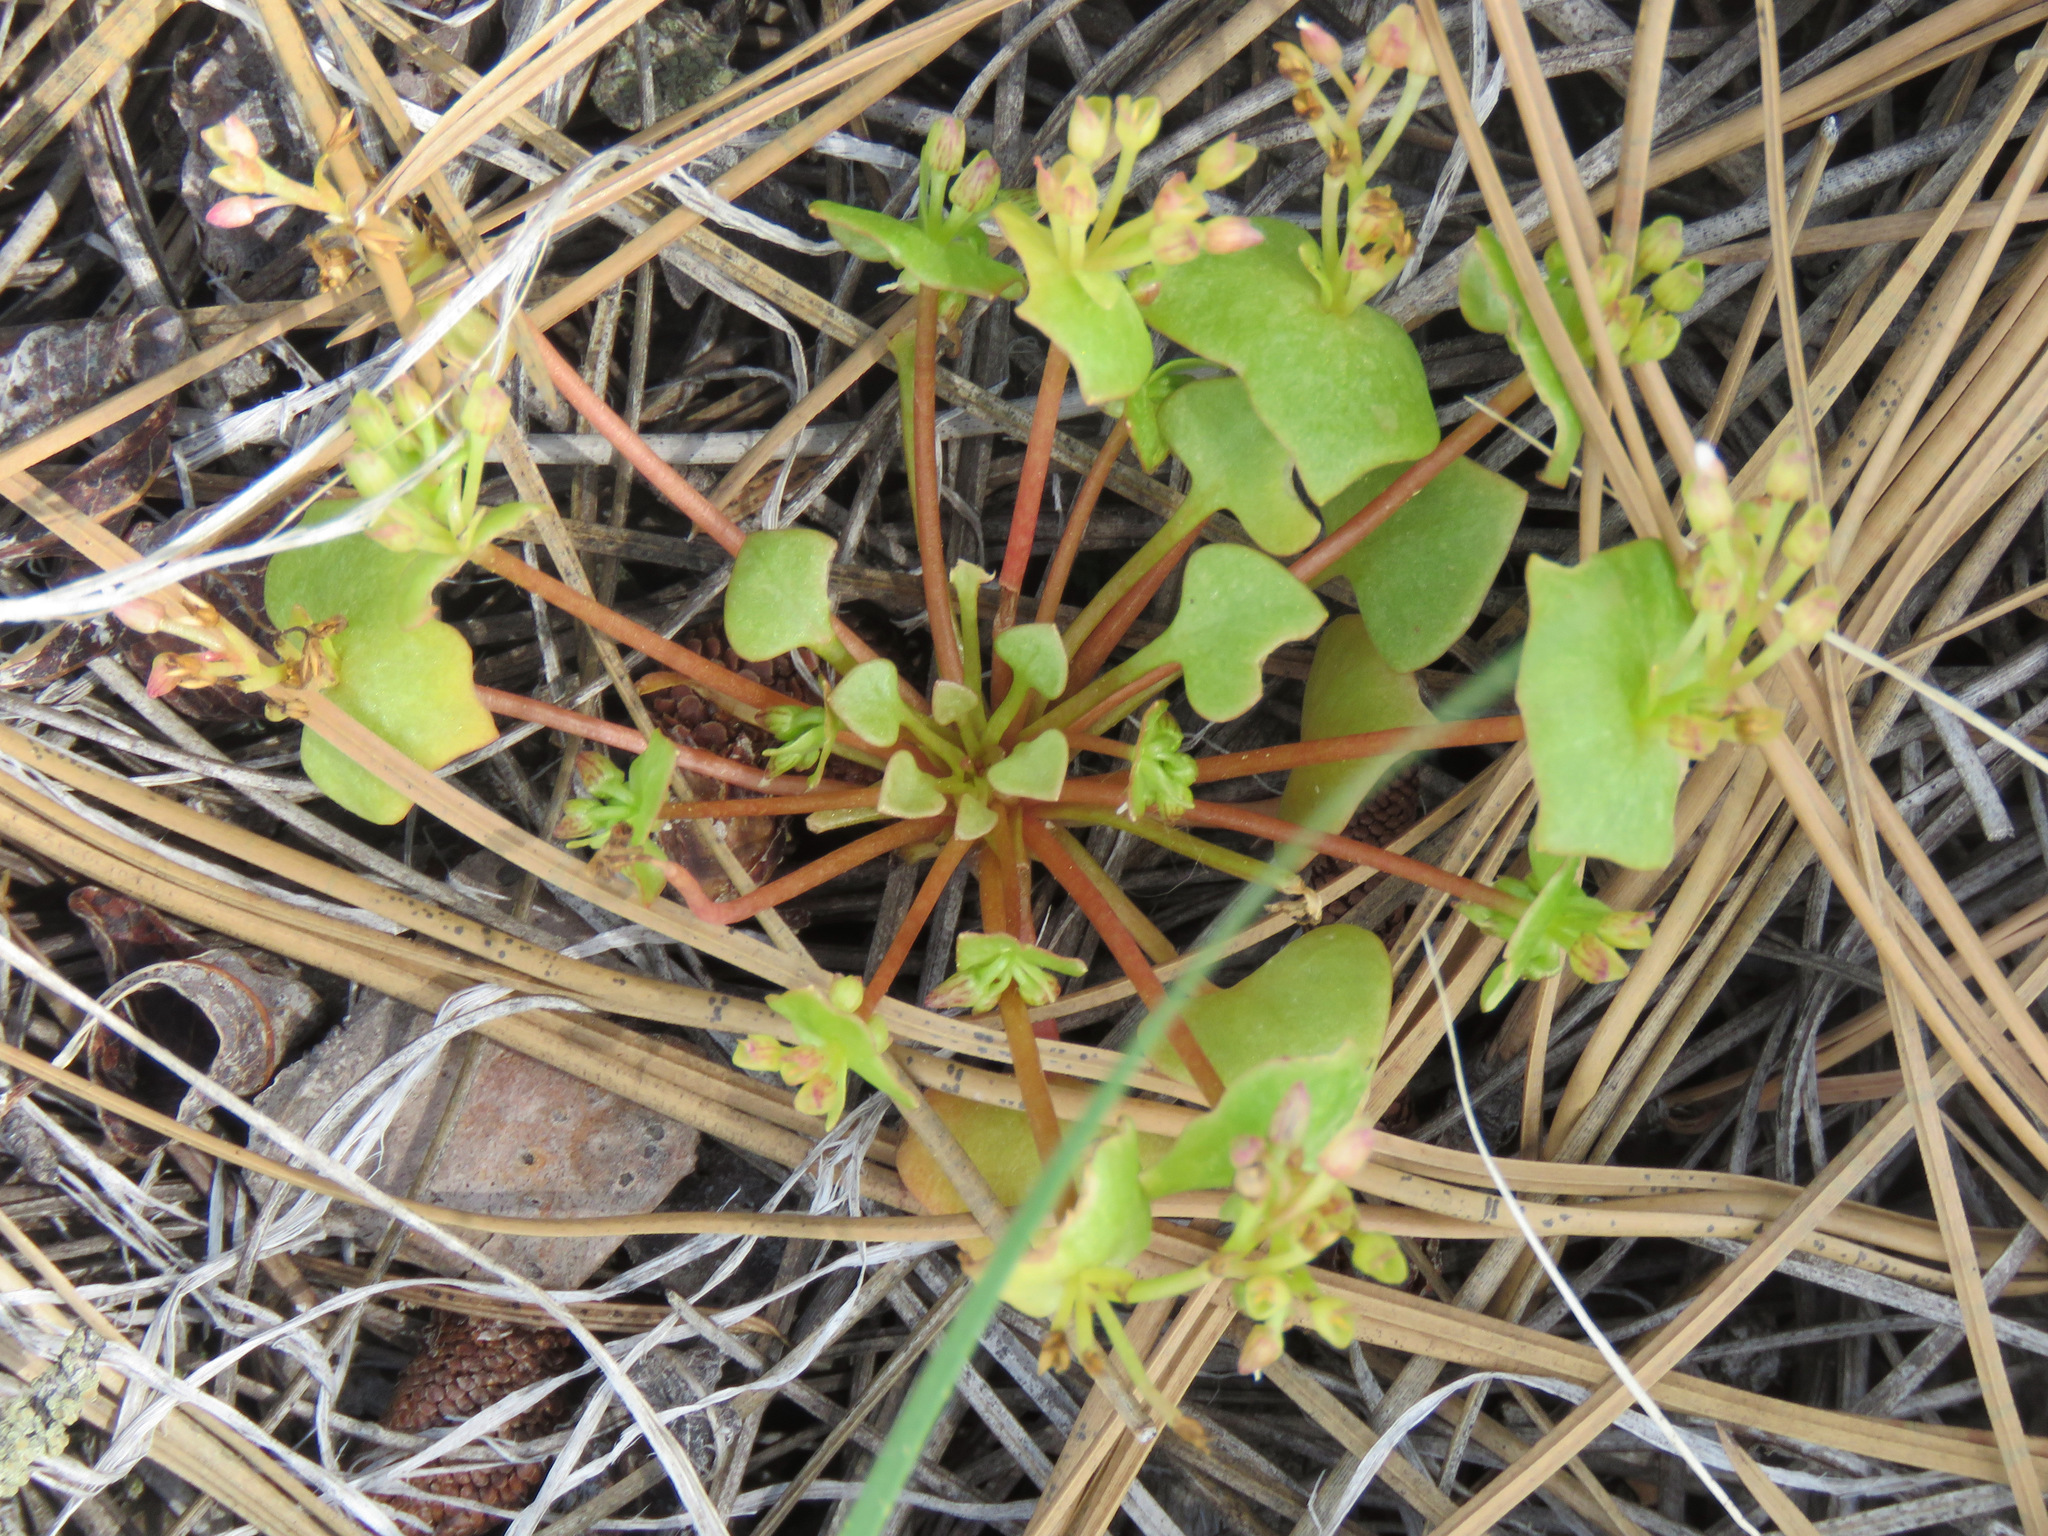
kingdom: Plantae
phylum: Tracheophyta
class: Magnoliopsida
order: Caryophyllales
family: Montiaceae
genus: Claytonia
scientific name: Claytonia rubra
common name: Erubescent miner's-lettuce
